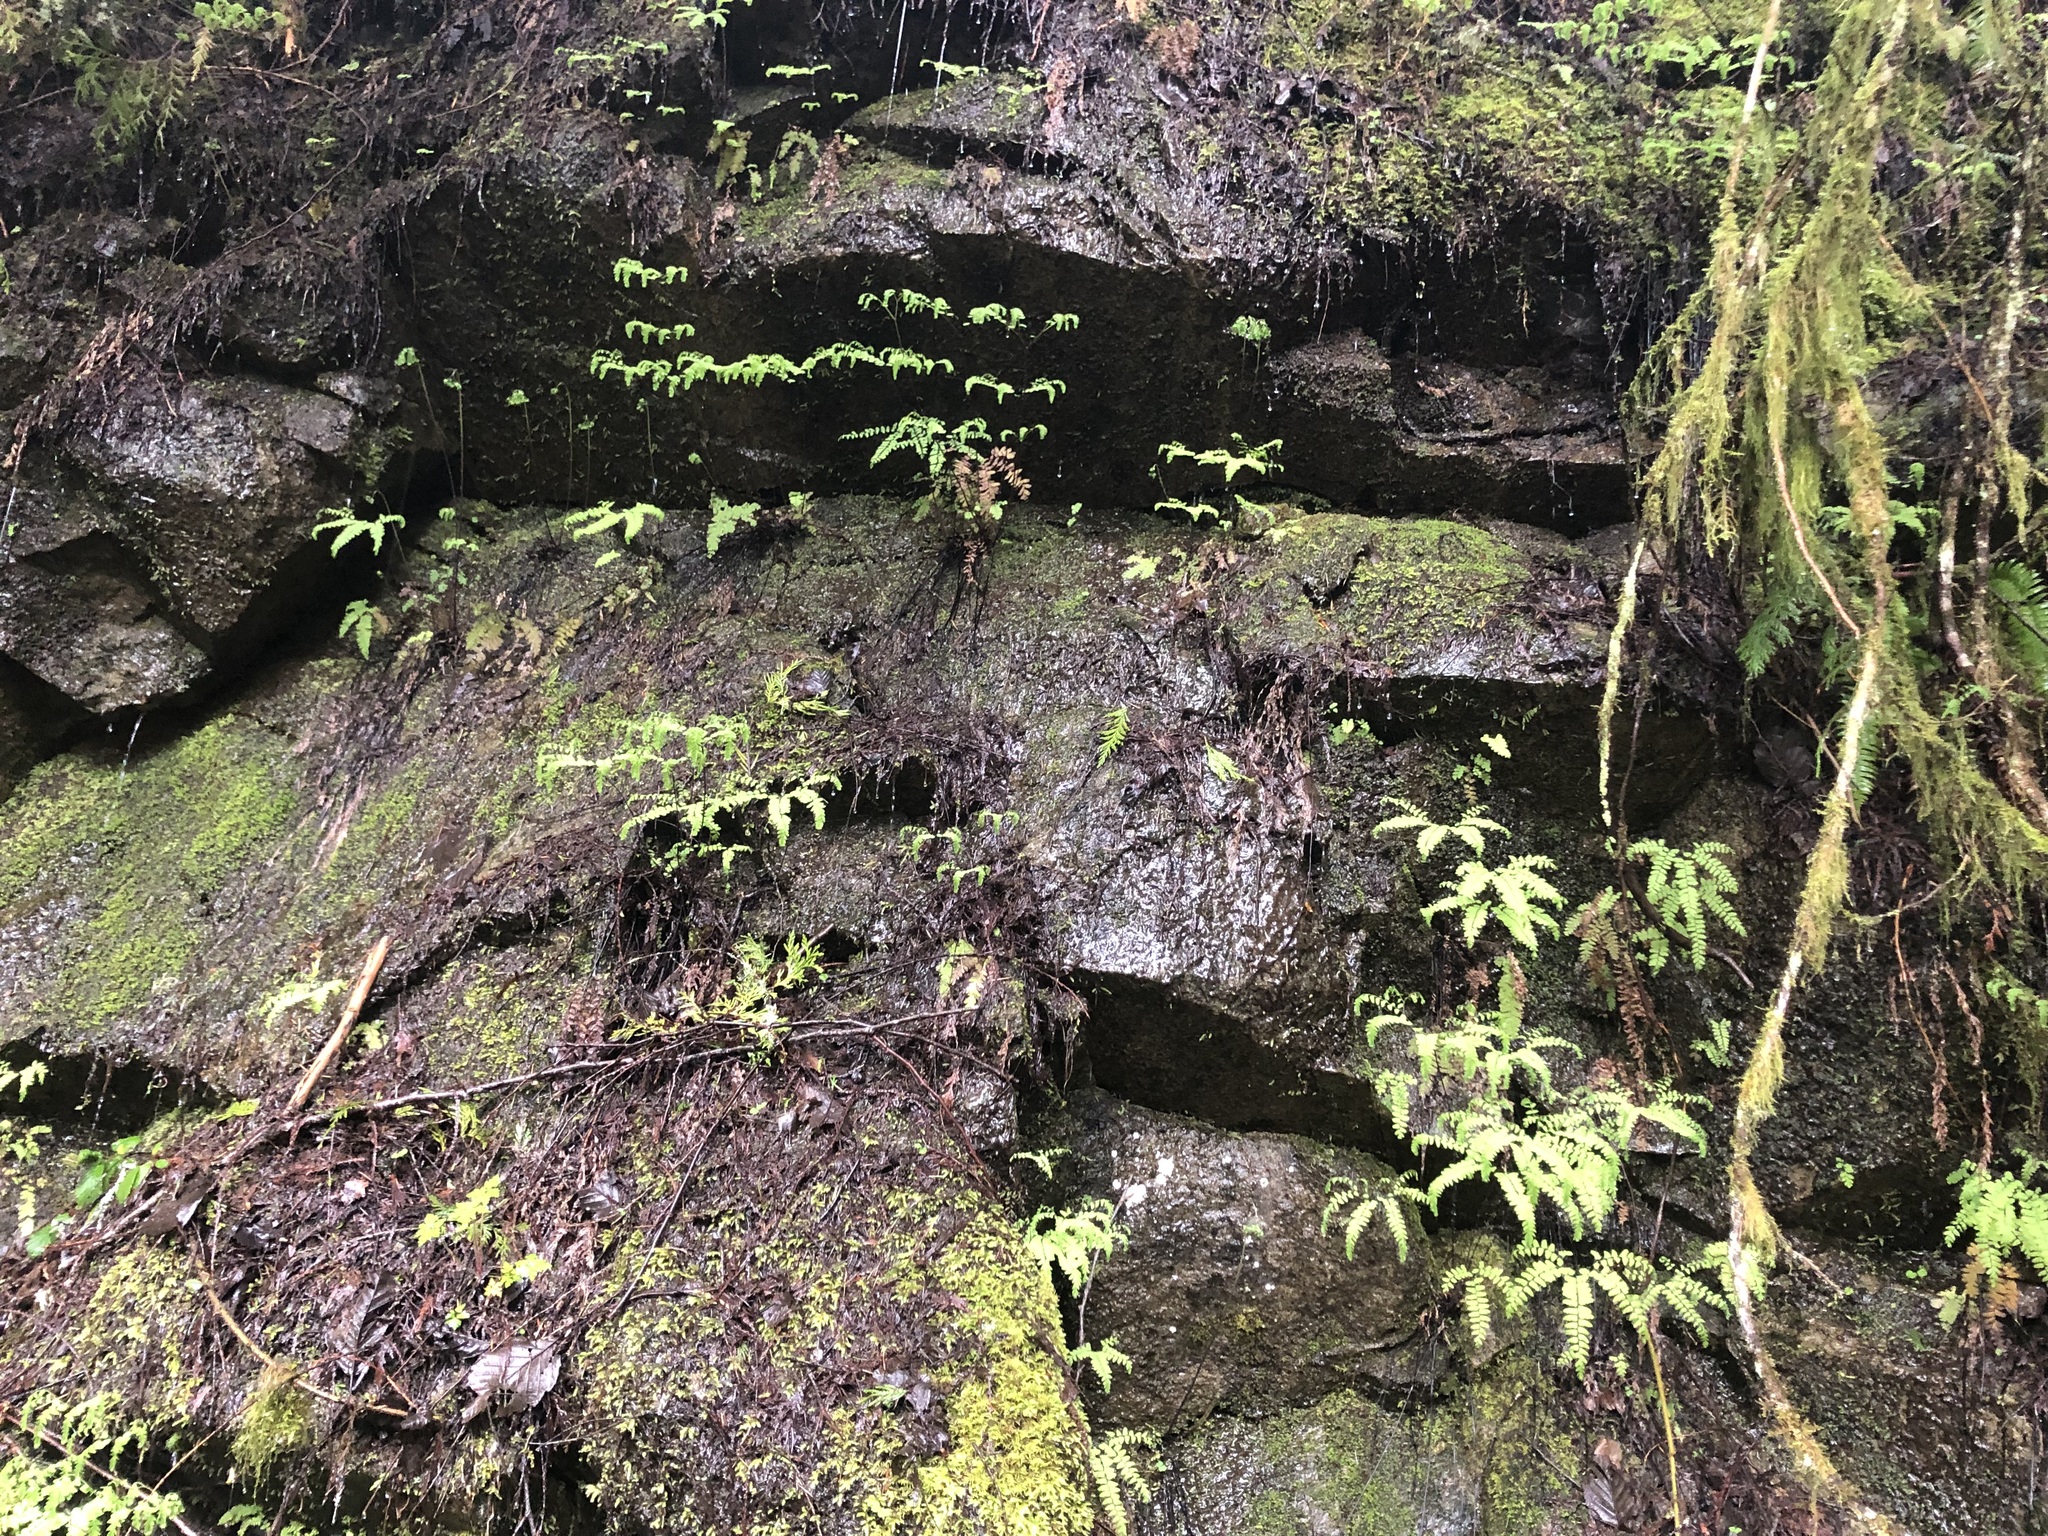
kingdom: Plantae
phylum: Tracheophyta
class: Polypodiopsida
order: Polypodiales
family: Pteridaceae
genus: Adiantum
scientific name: Adiantum aleuticum
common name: Aleutian maidenhair fern
